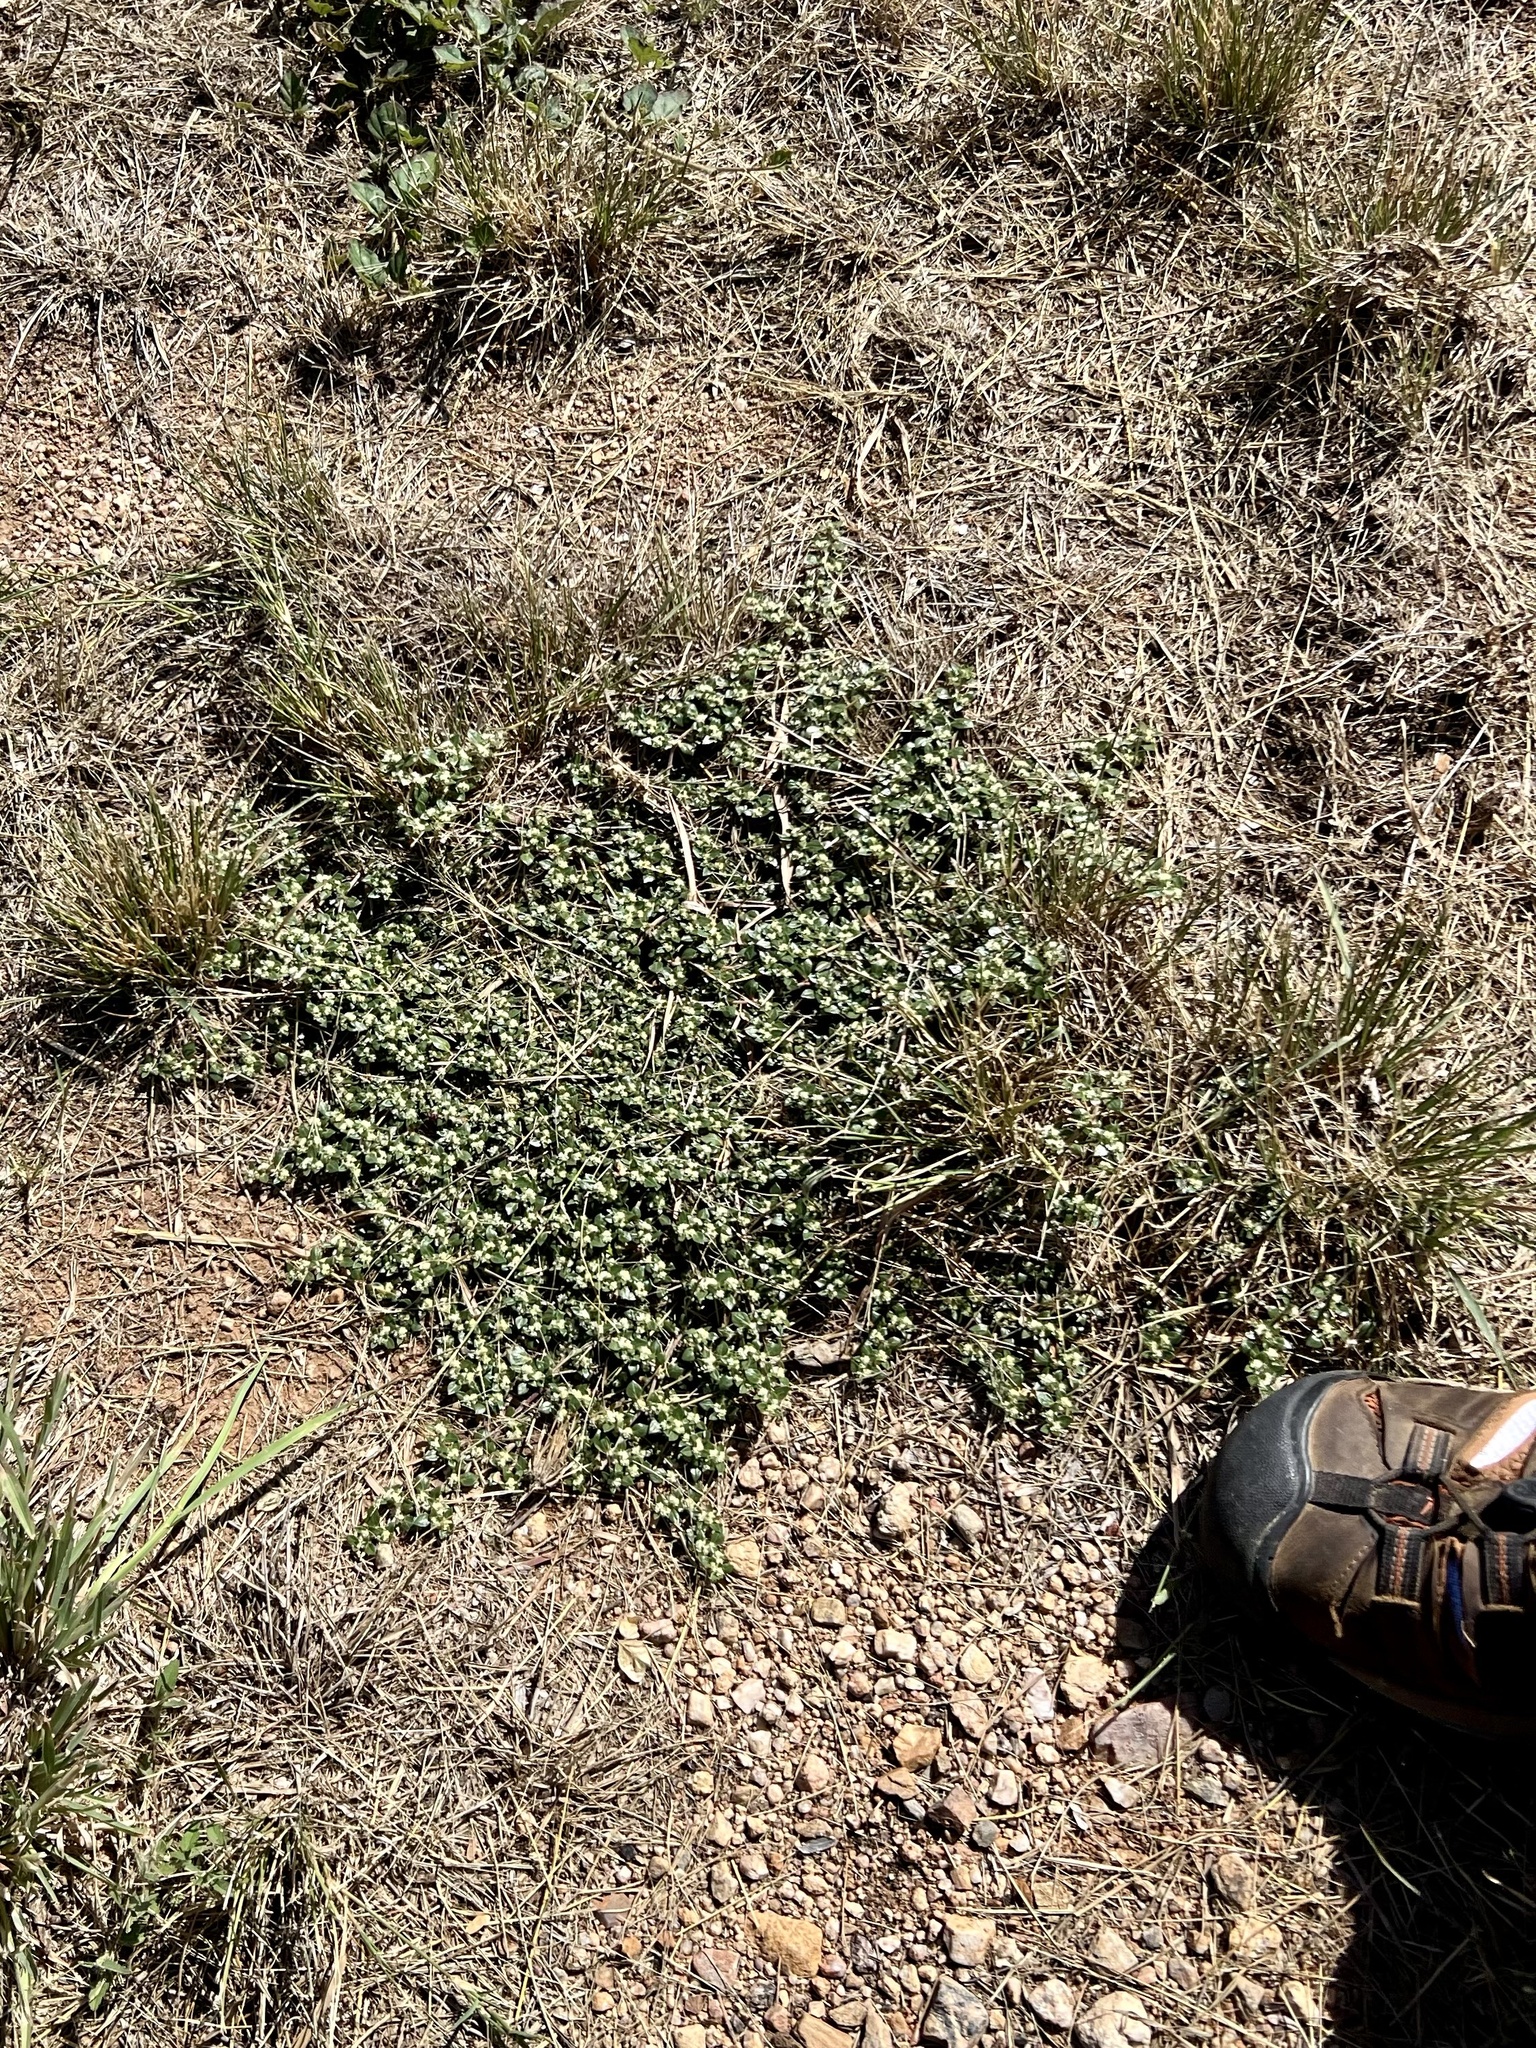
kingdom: Plantae
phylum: Tracheophyta
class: Magnoliopsida
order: Caryophyllales
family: Amaranthaceae
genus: Guilleminea
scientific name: Guilleminea densa
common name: Small matweed
